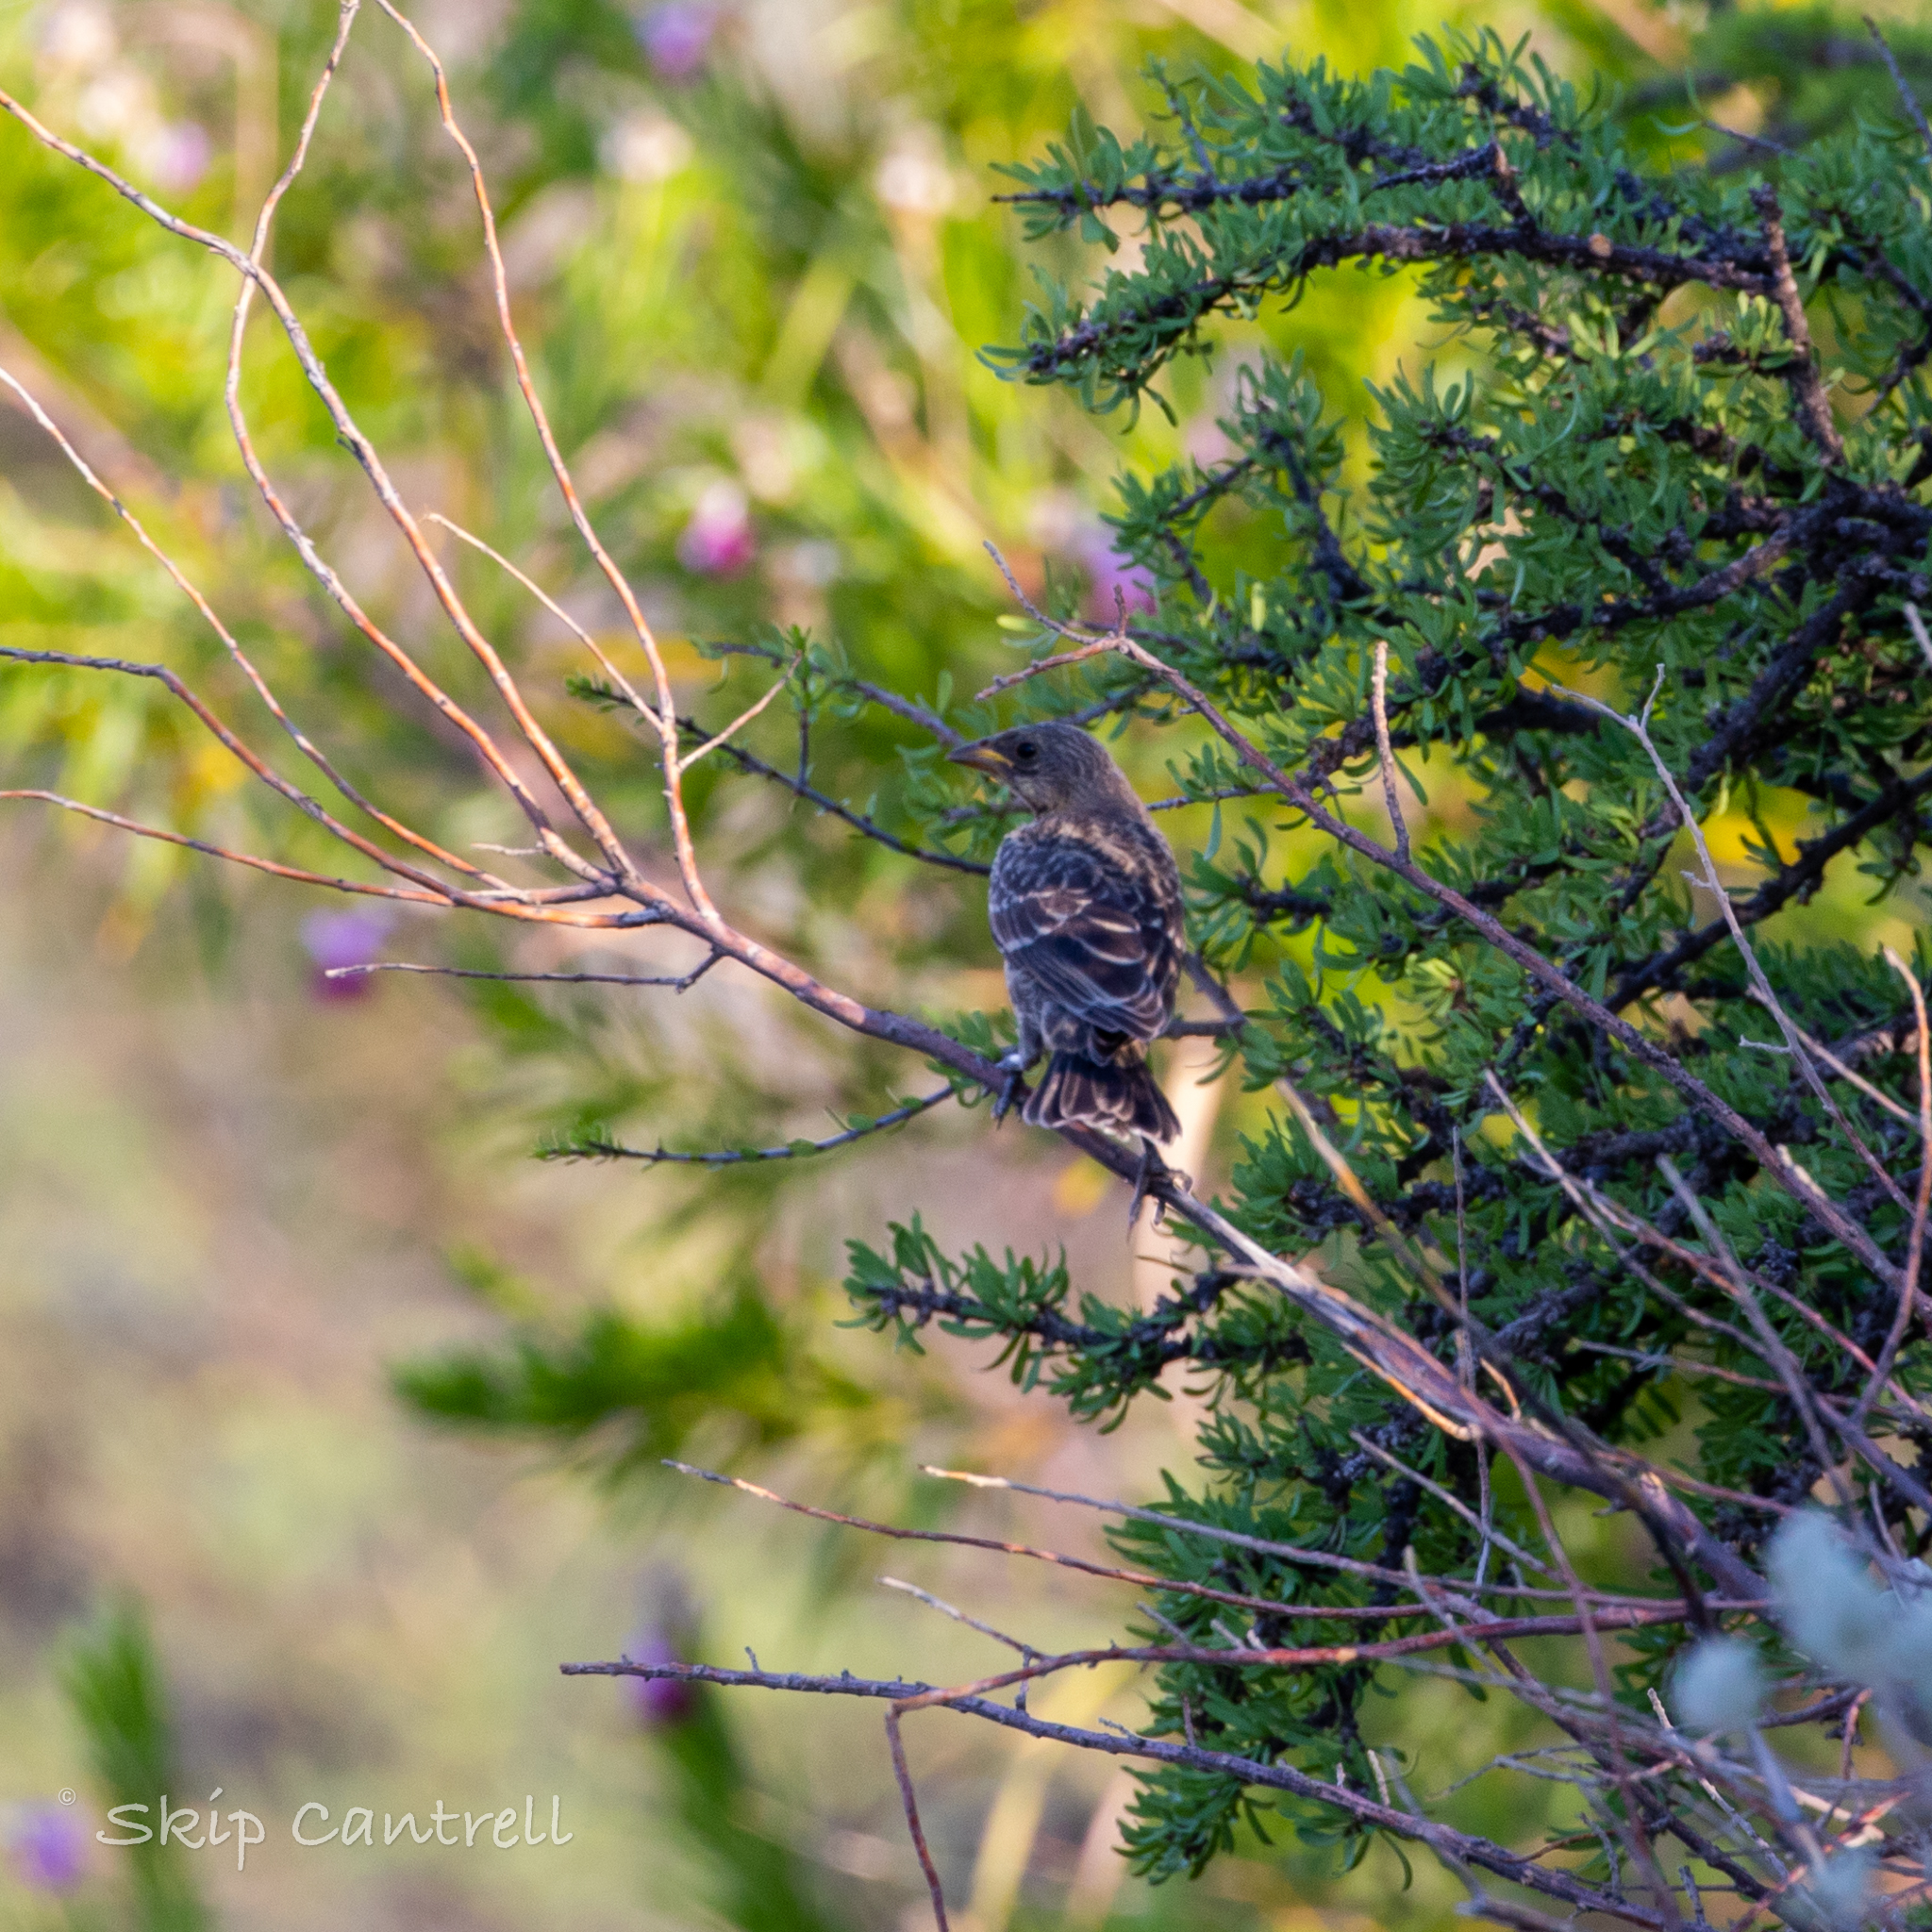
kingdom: Animalia
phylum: Chordata
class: Aves
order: Passeriformes
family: Icteridae
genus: Molothrus
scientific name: Molothrus ater
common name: Brown-headed cowbird
